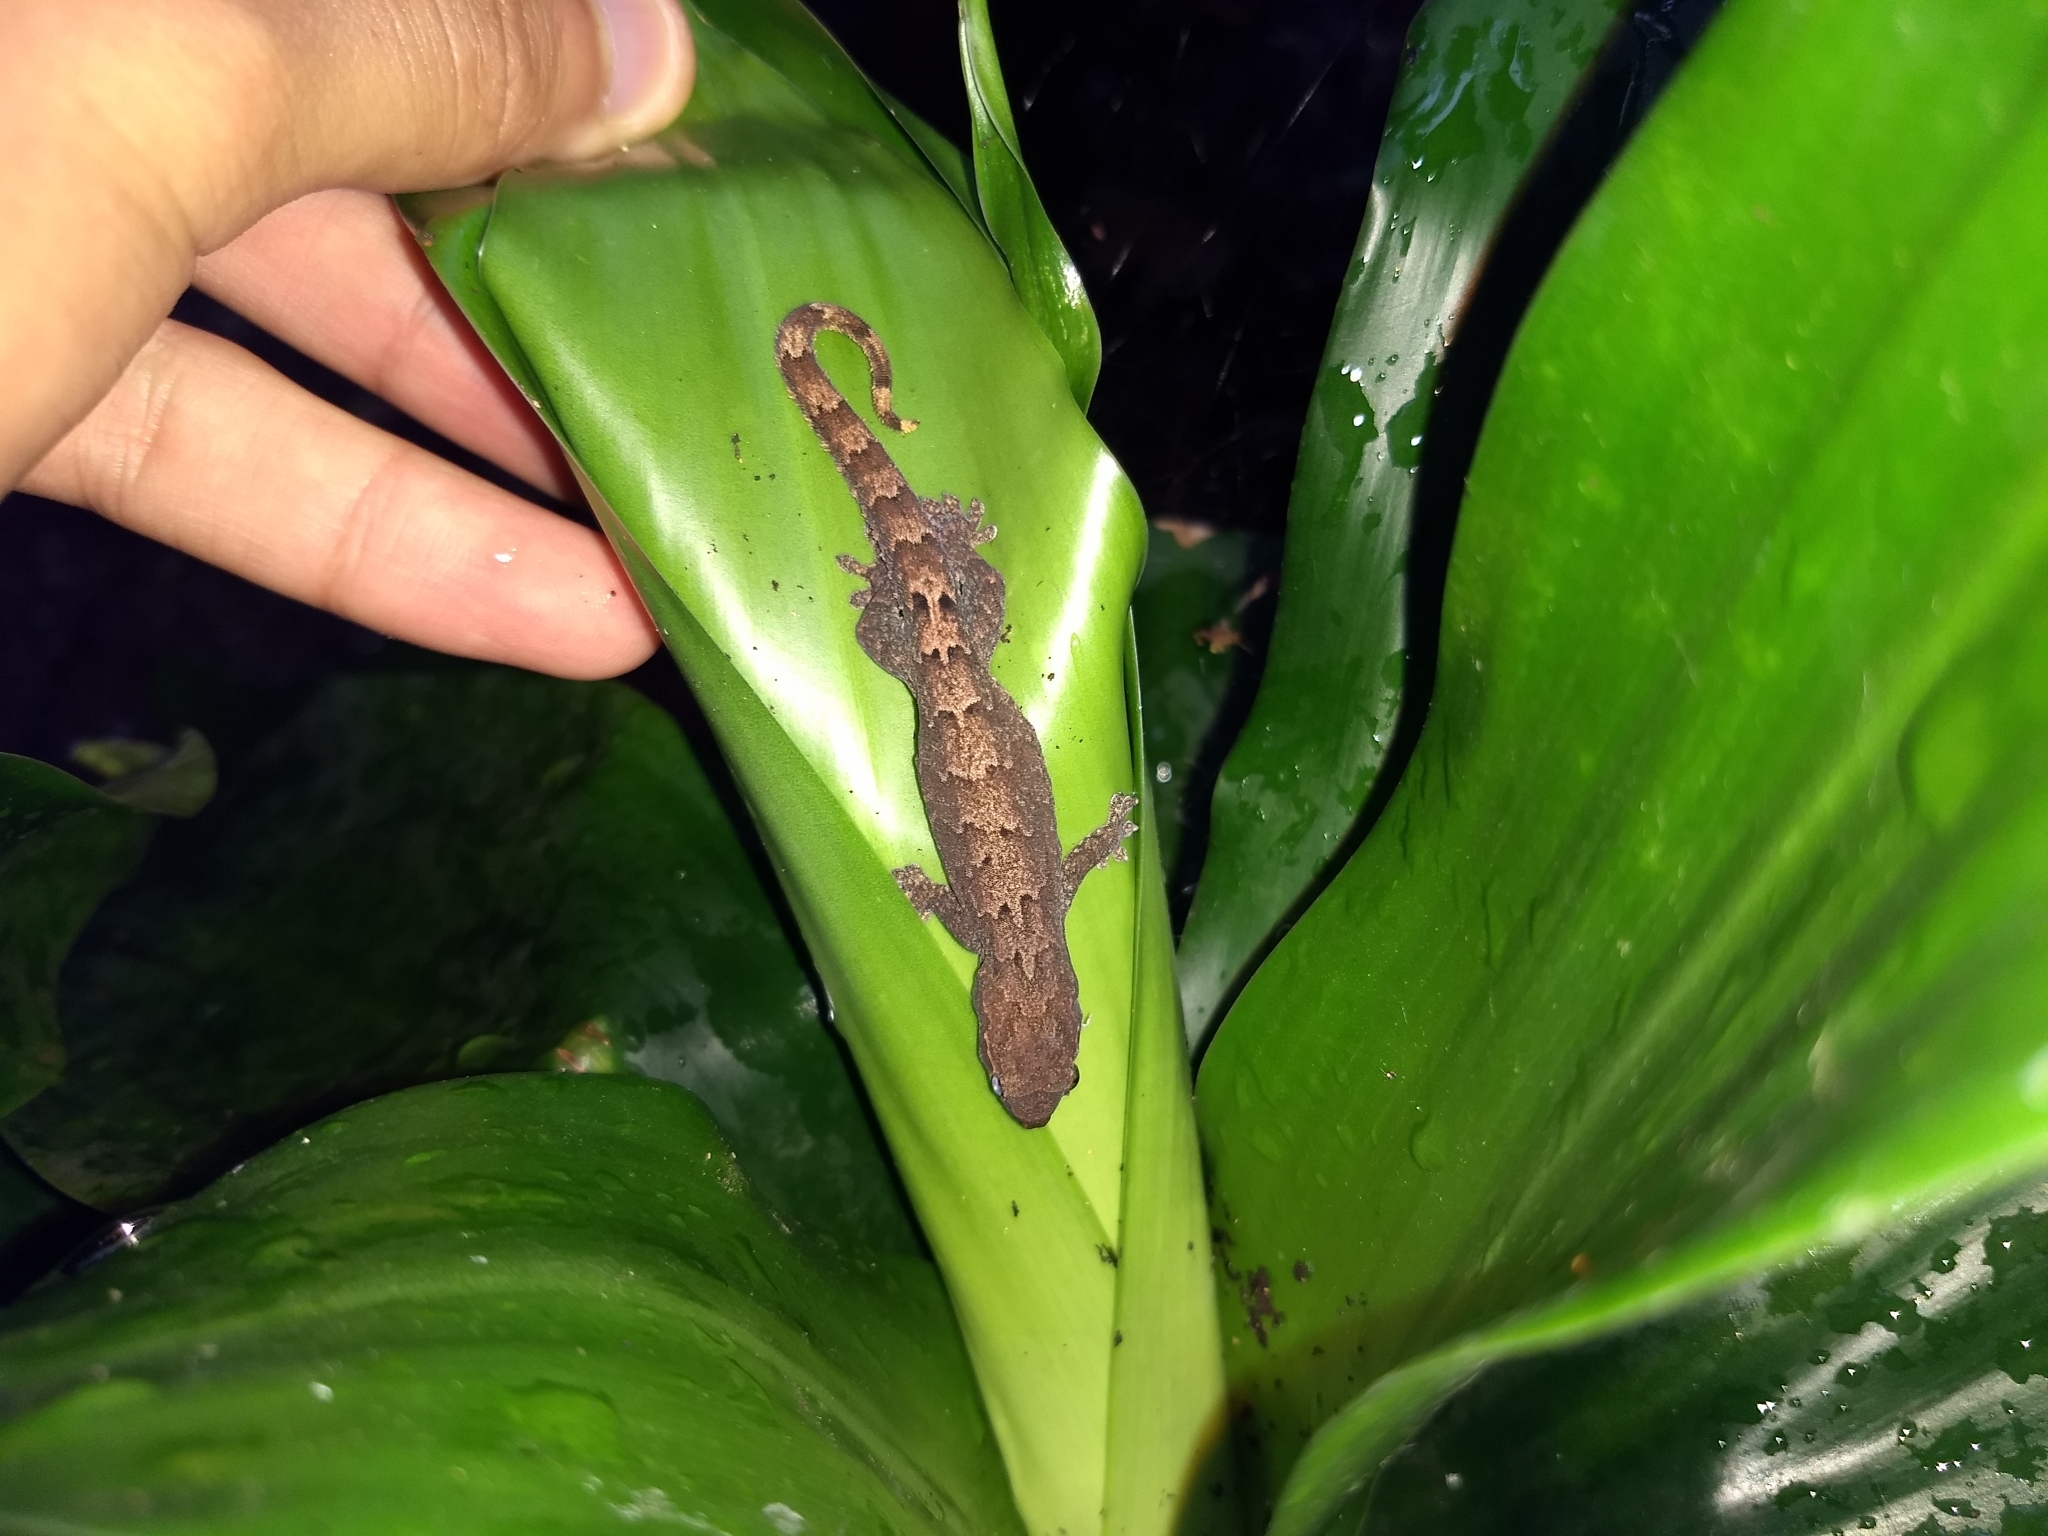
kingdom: Animalia
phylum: Chordata
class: Squamata
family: Gekkonidae
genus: Lepidodactylus
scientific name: Lepidodactylus lugubris
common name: Mourning gecko
